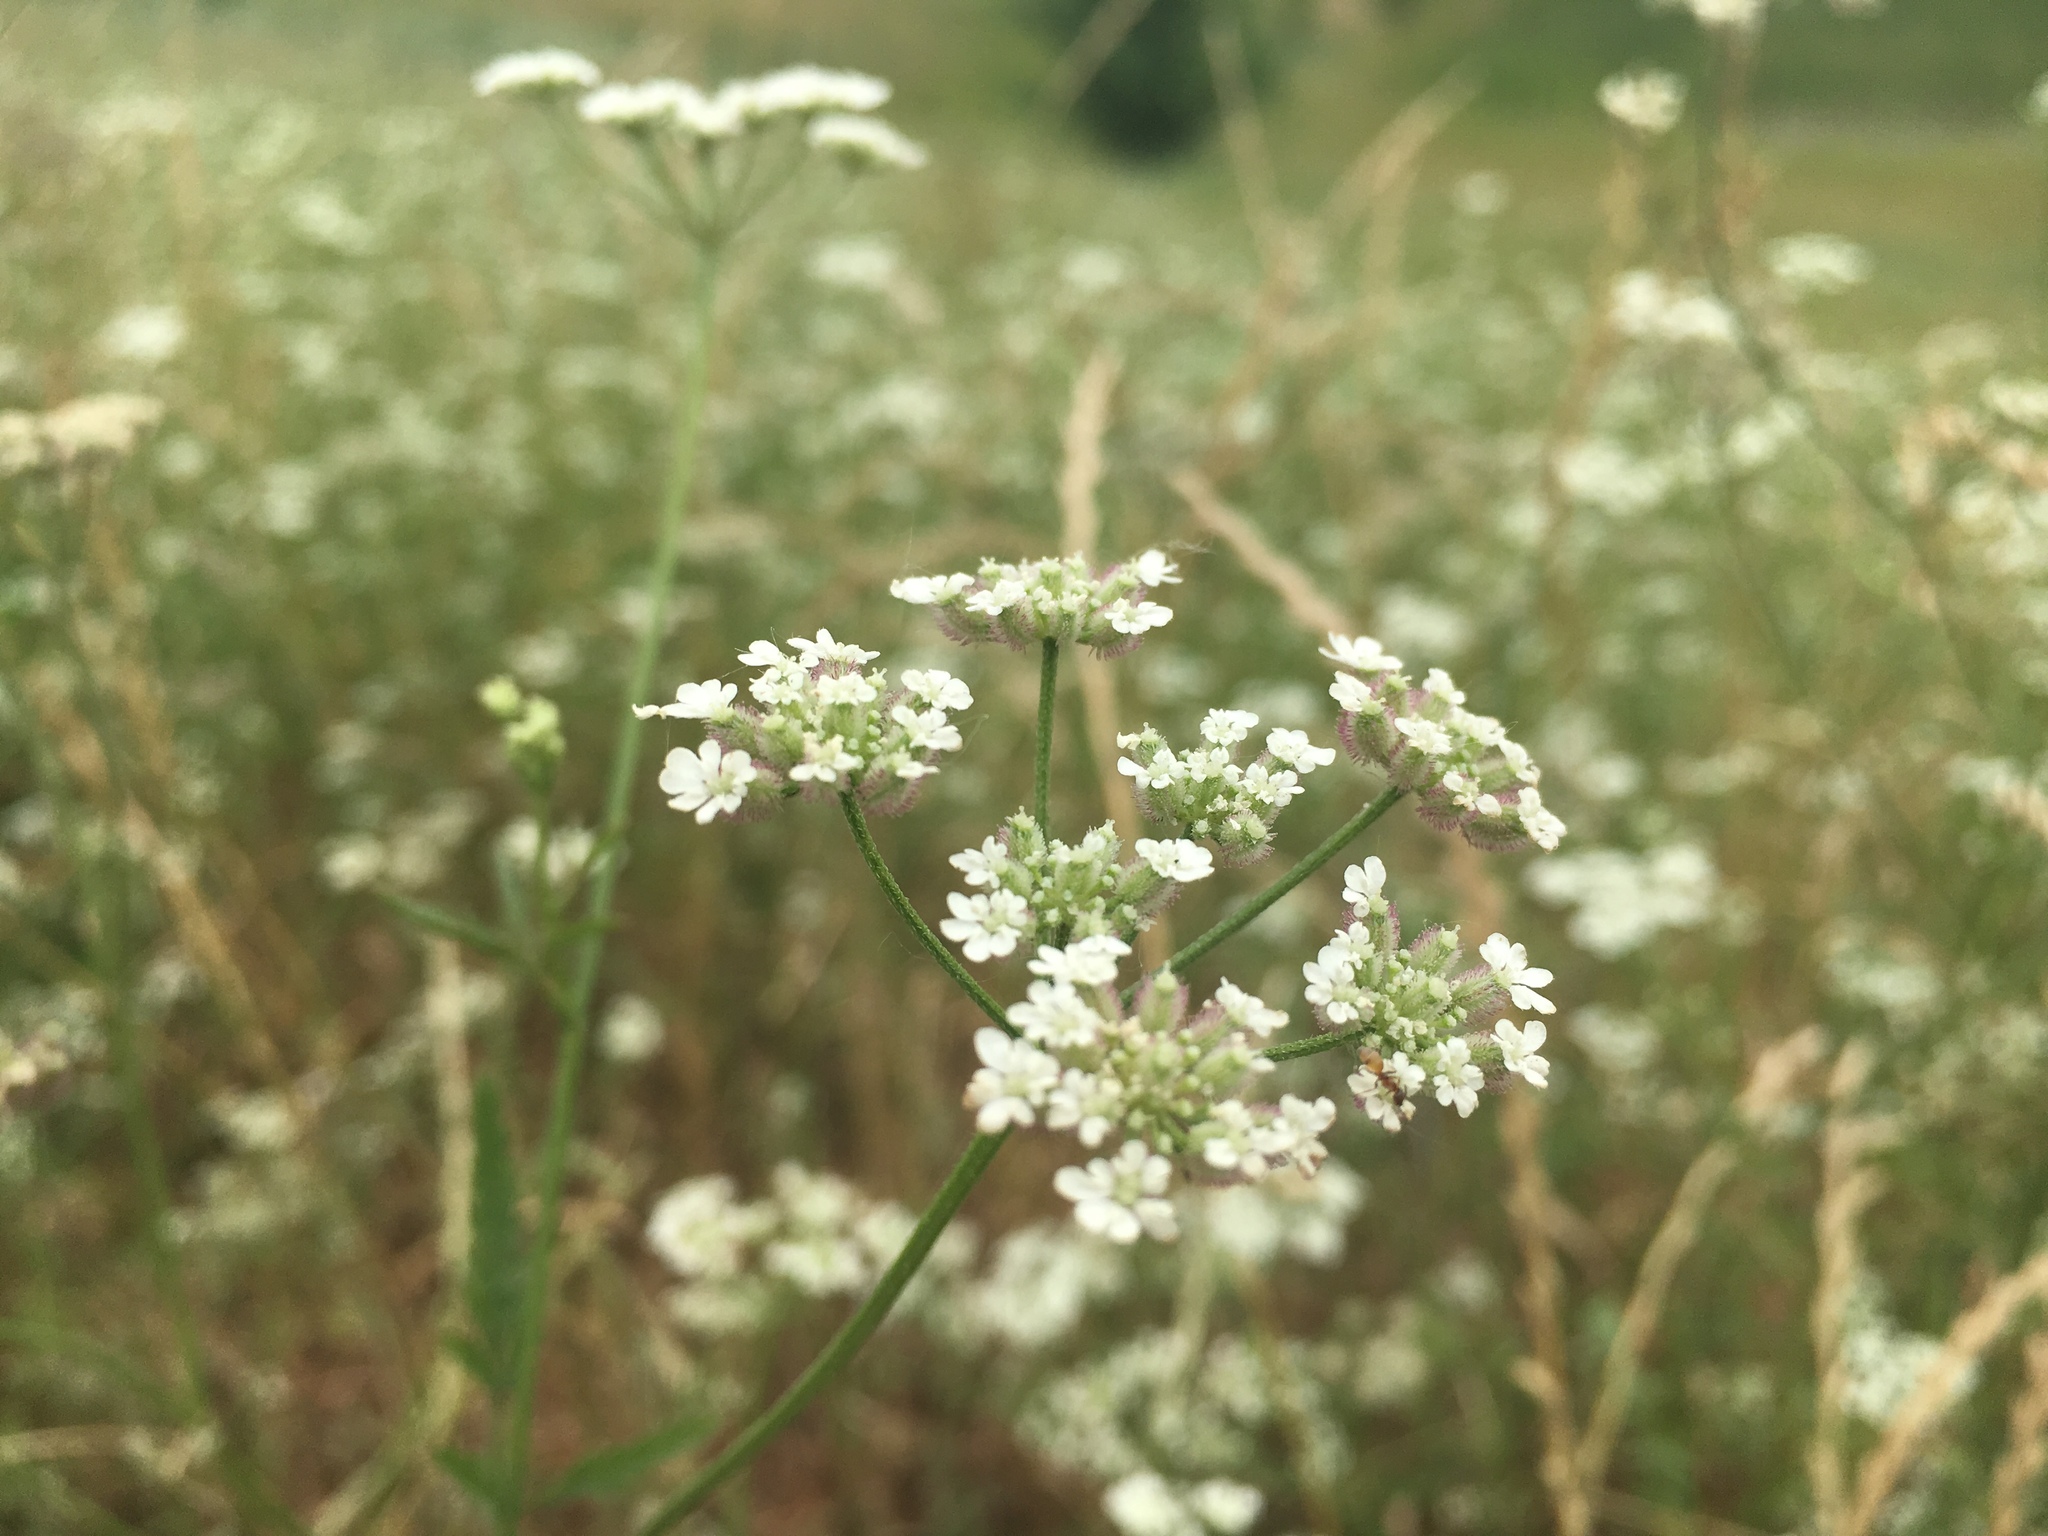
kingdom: Plantae
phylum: Tracheophyta
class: Magnoliopsida
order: Apiales
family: Apiaceae
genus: Torilis
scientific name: Torilis arvensis
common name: Spreading hedge-parsley
